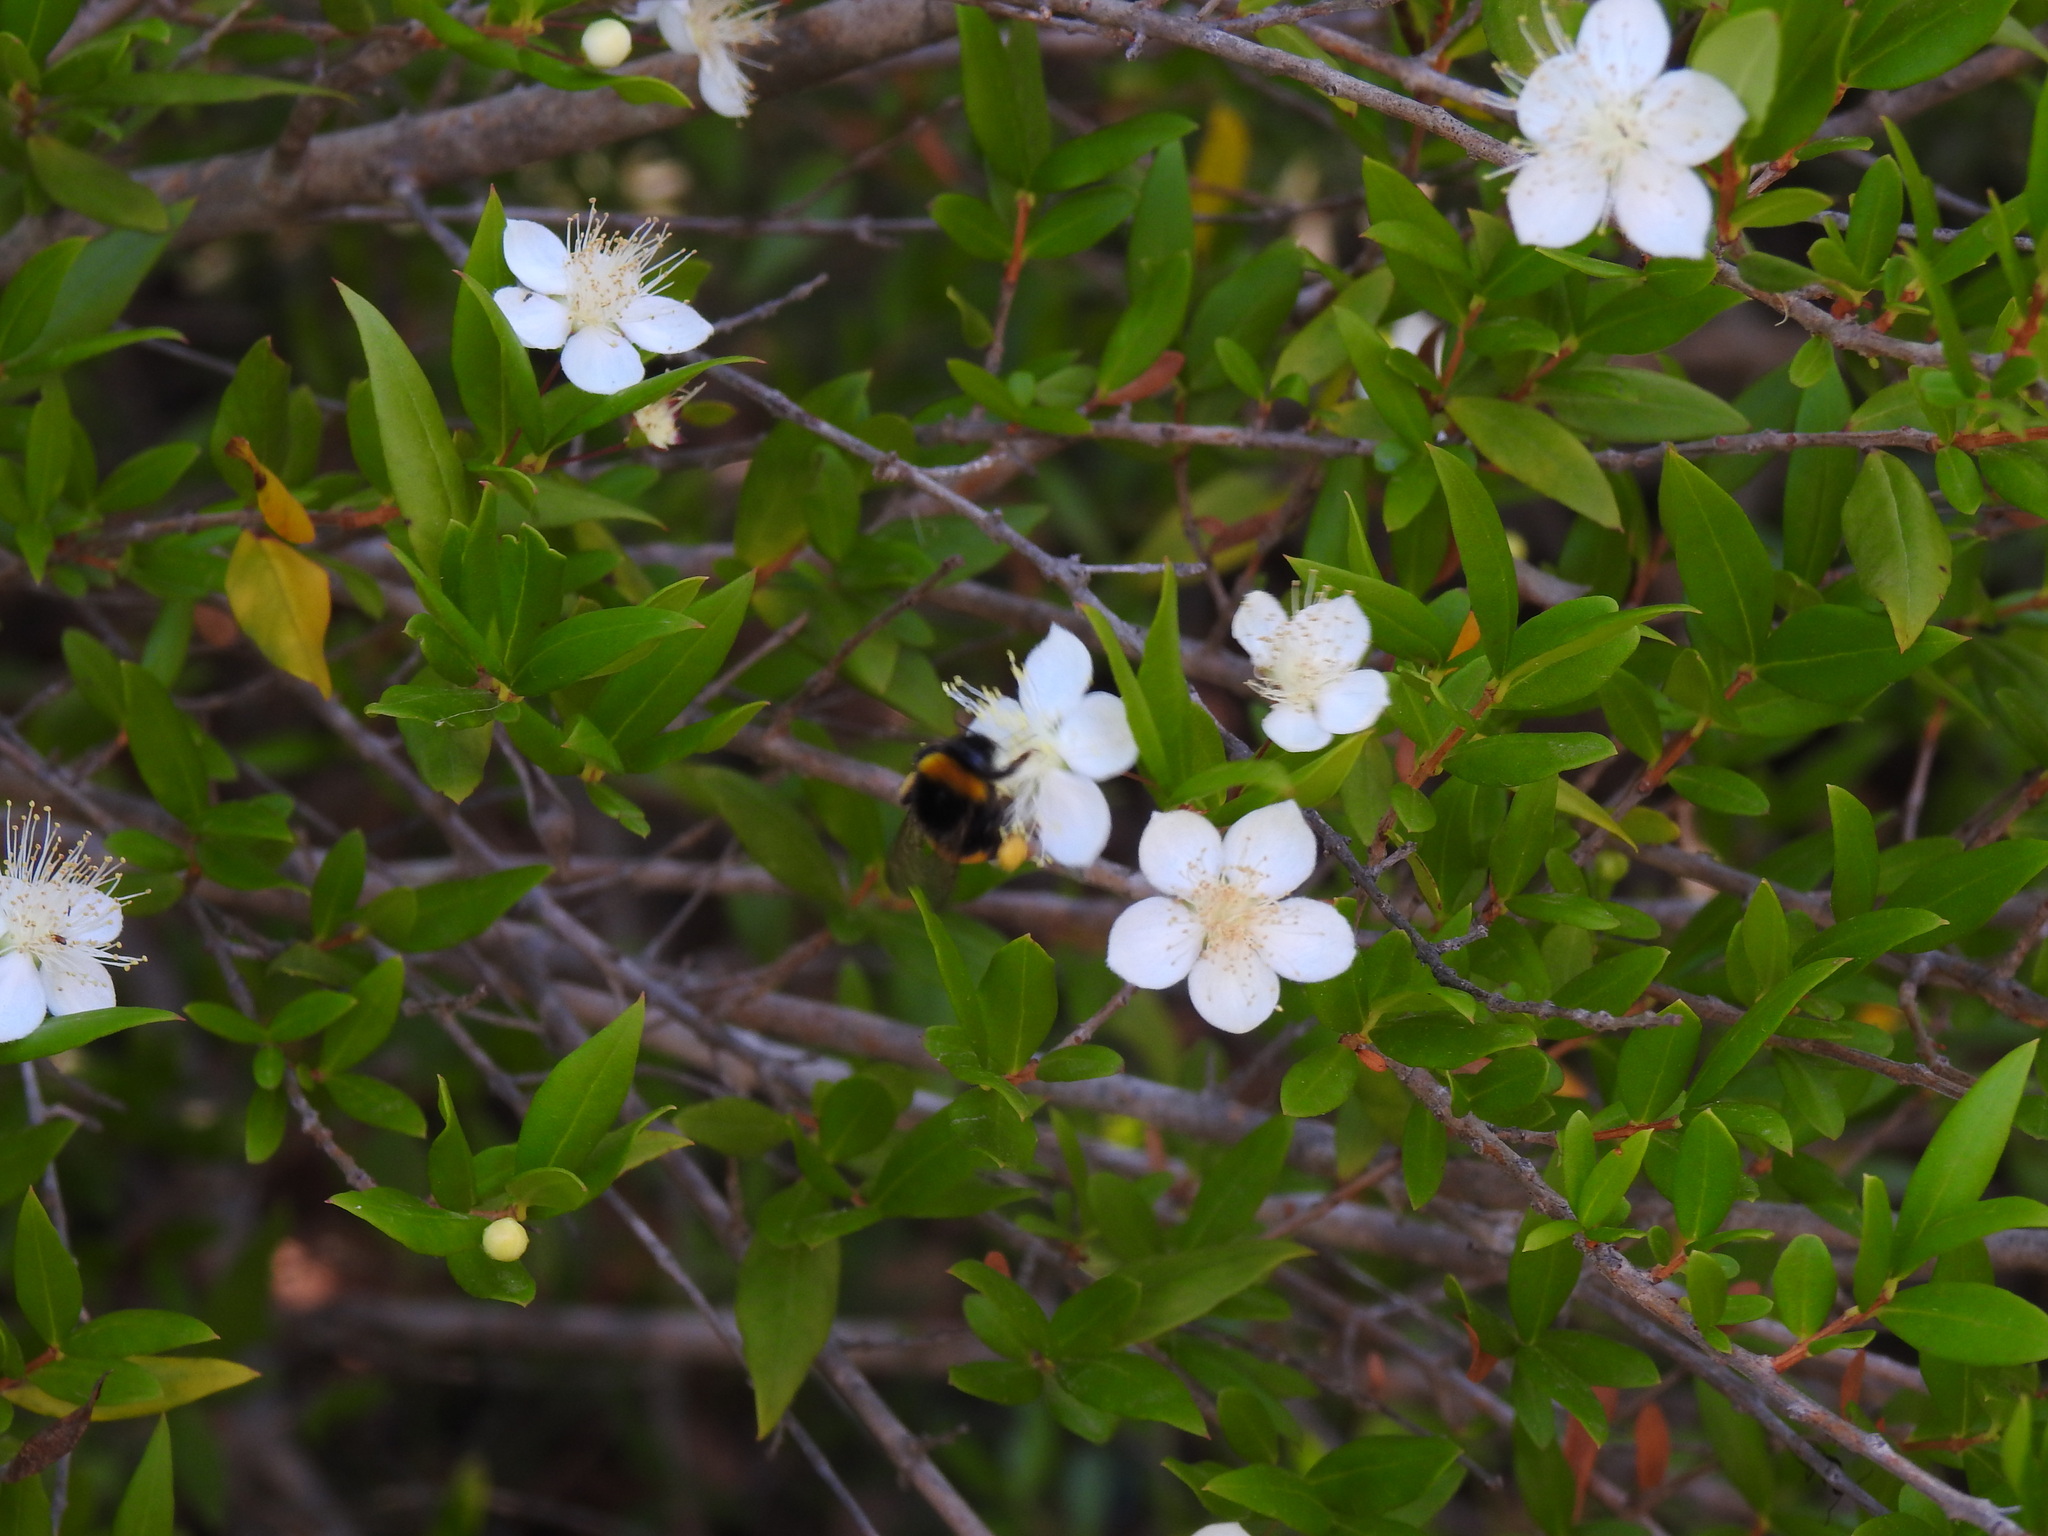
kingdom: Plantae
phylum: Tracheophyta
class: Magnoliopsida
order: Myrtales
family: Myrtaceae
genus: Myrtus
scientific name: Myrtus communis
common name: Myrtle
